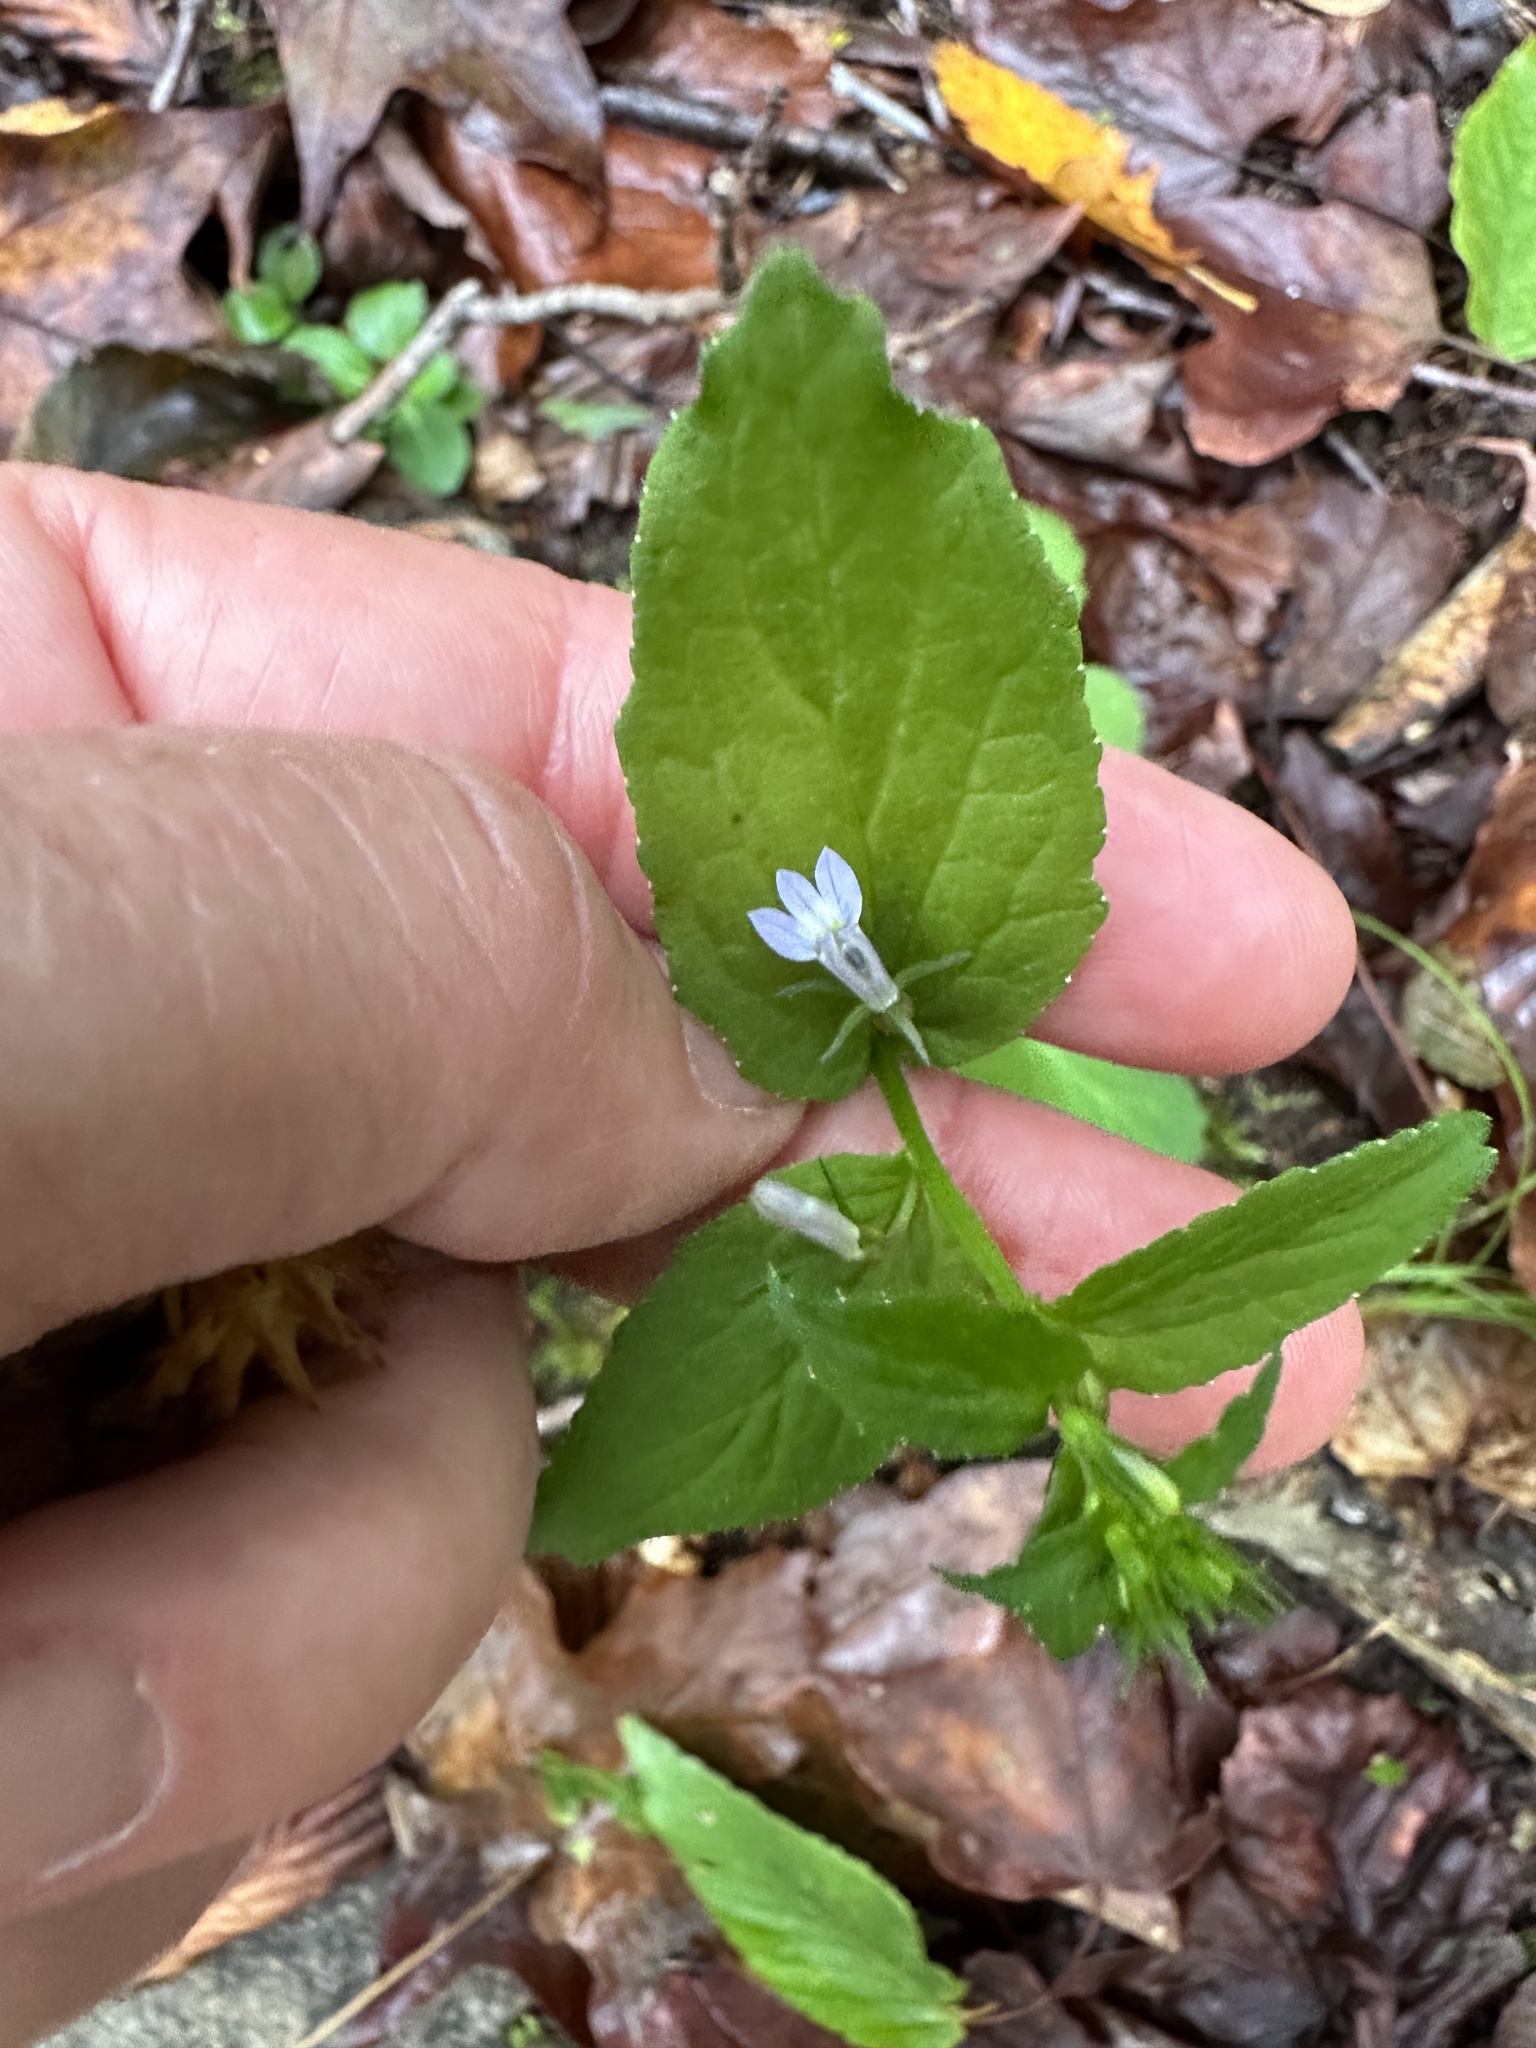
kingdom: Plantae
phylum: Tracheophyta
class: Magnoliopsida
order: Asterales
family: Campanulaceae
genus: Lobelia
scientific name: Lobelia inflata
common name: Indian tobacco
